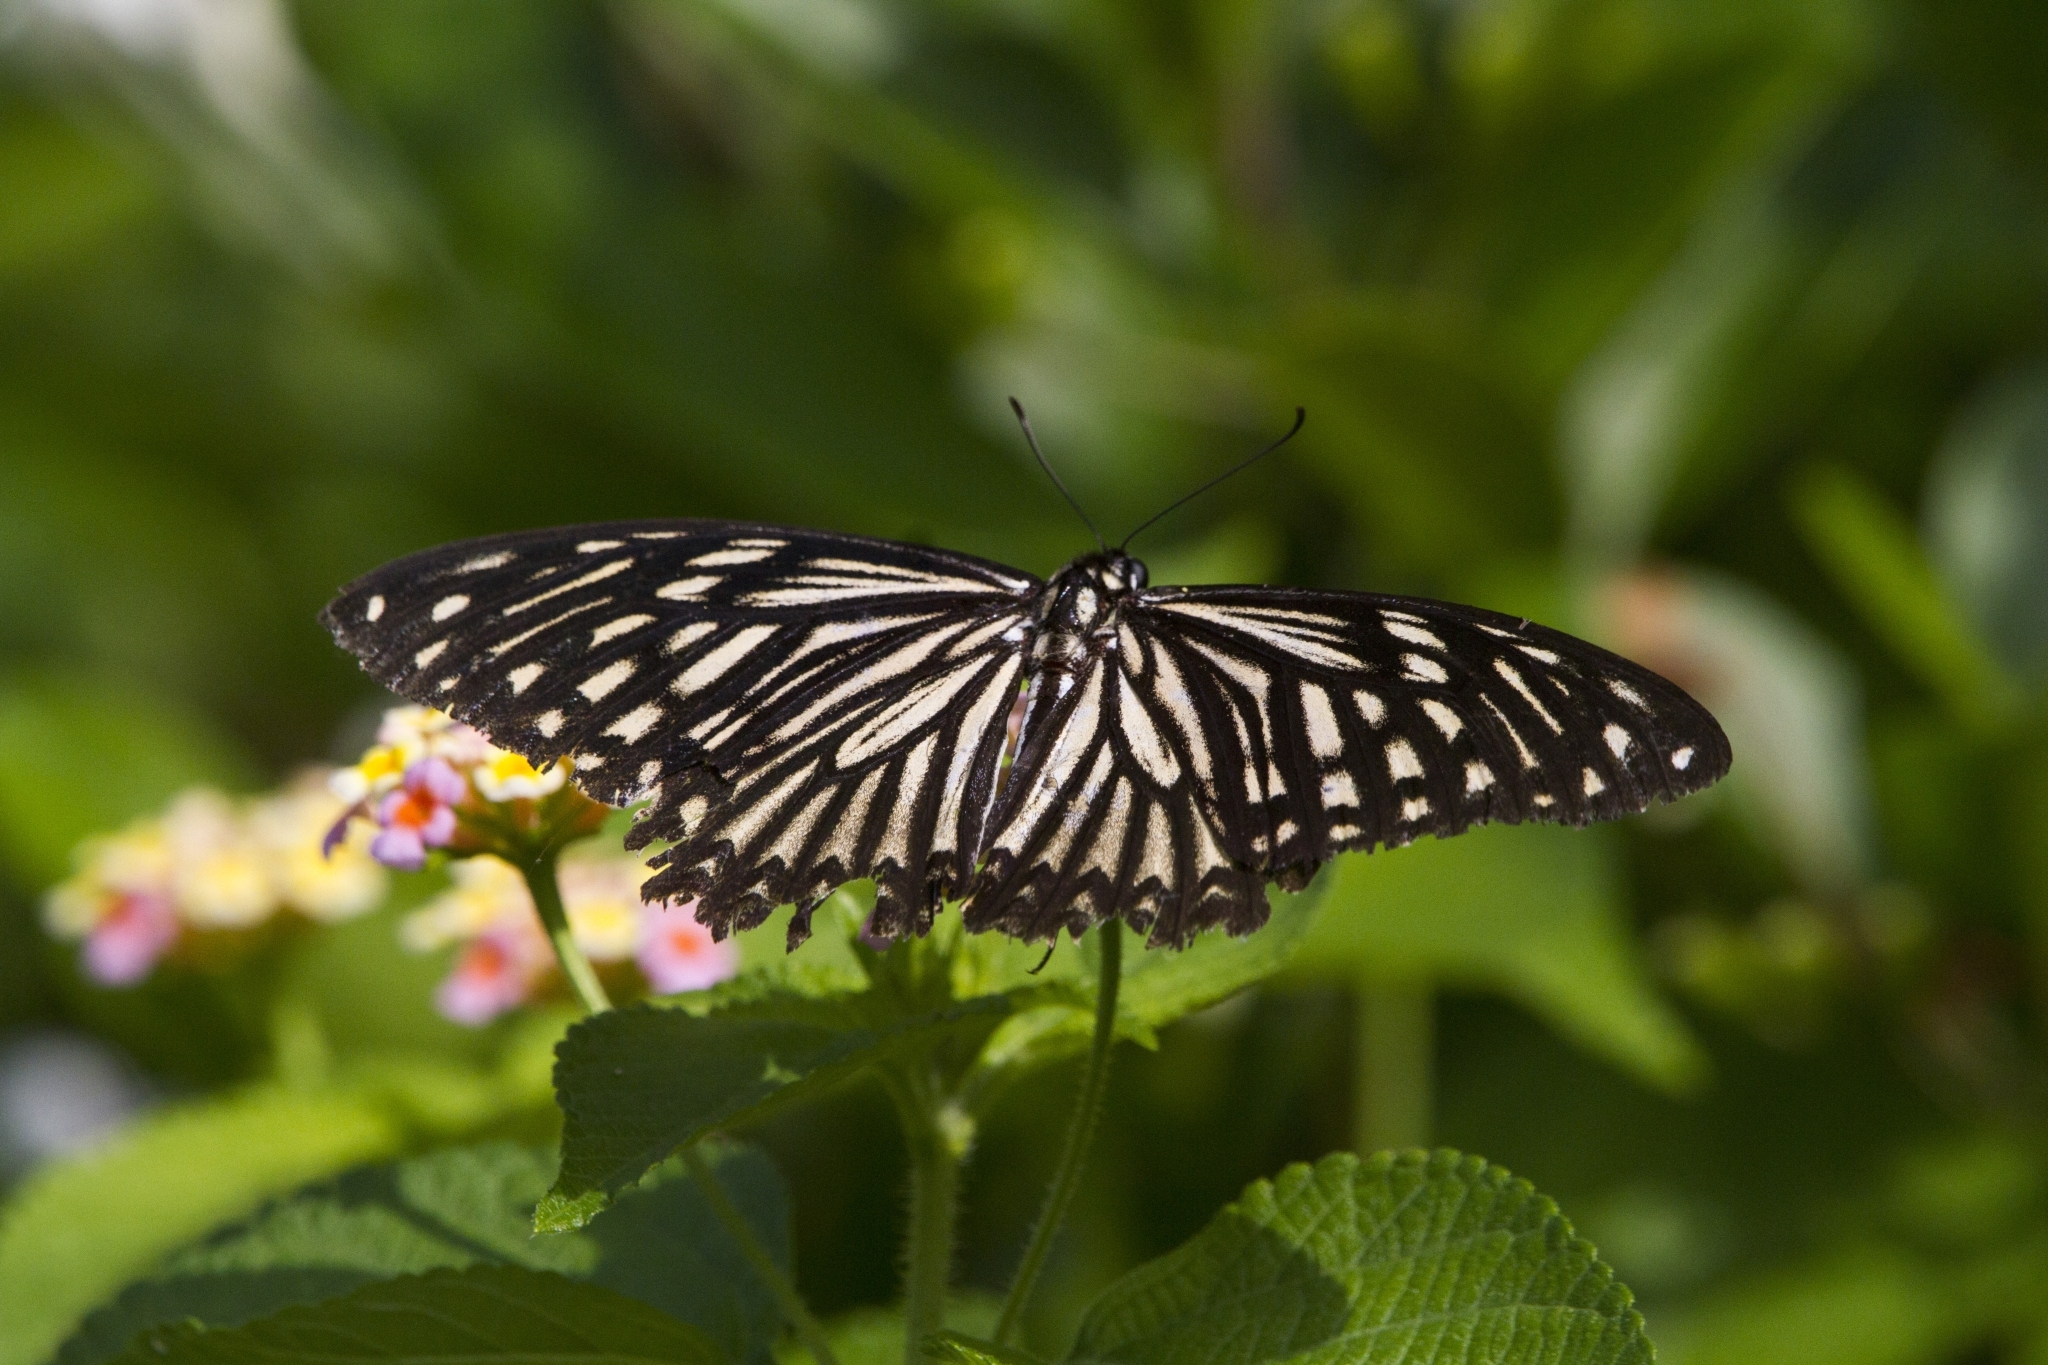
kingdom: Animalia
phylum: Arthropoda
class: Insecta
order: Lepidoptera
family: Papilionidae
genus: Chilasa
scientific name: Chilasa clytia
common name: Common mime
